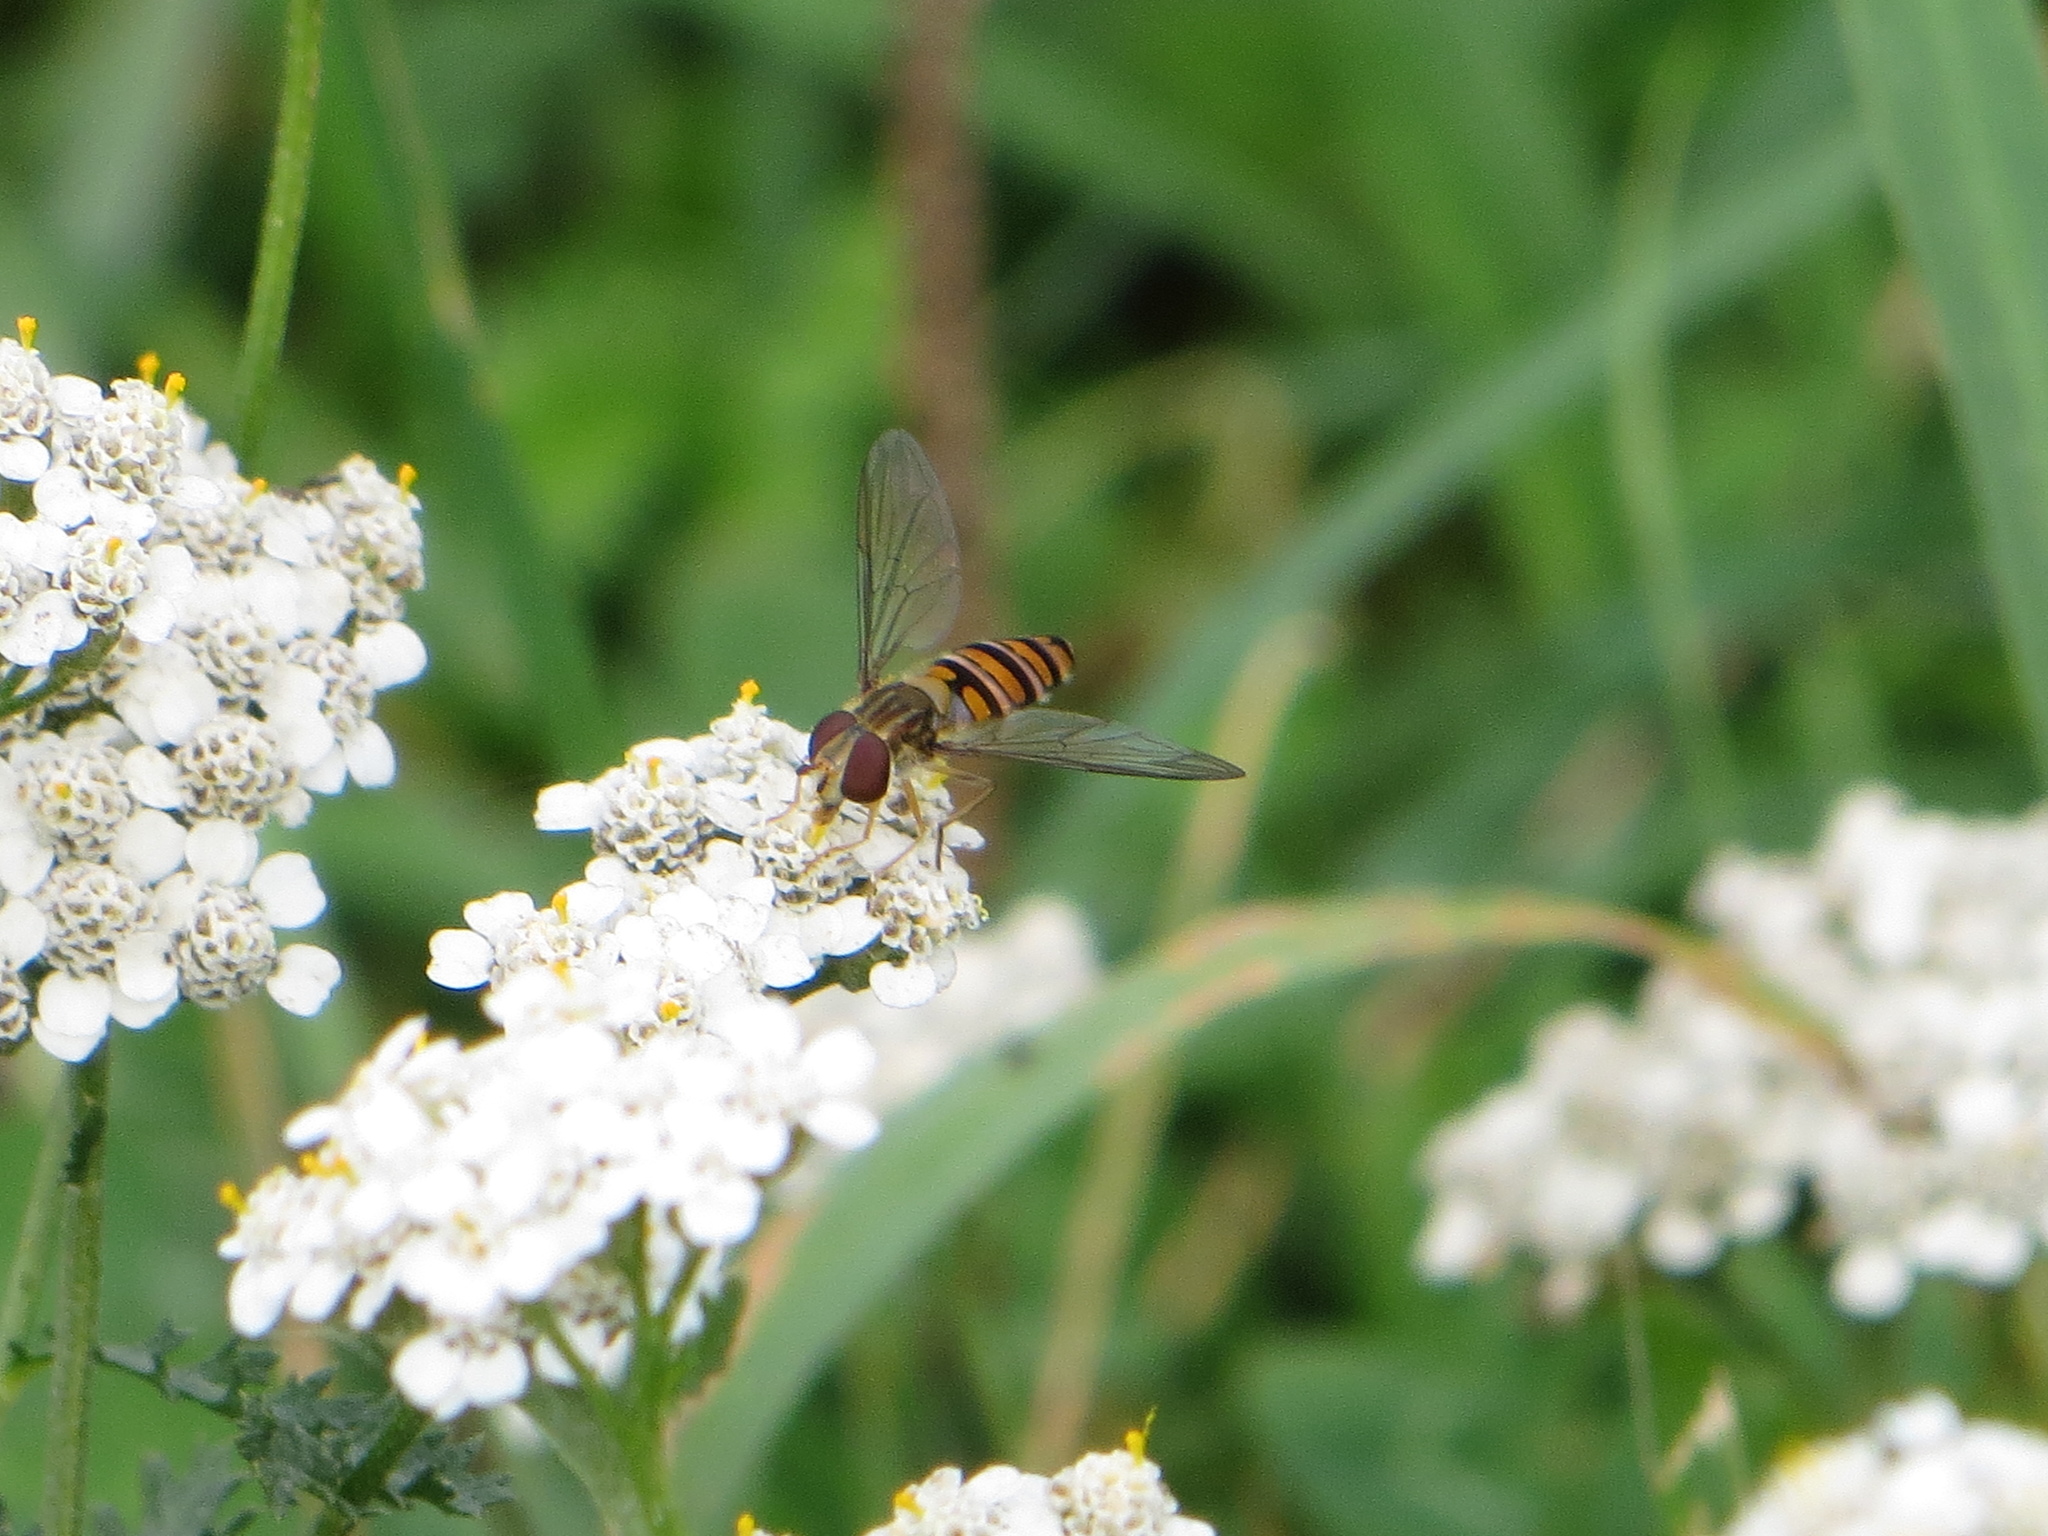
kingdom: Animalia
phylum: Arthropoda
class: Insecta
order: Diptera
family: Syrphidae
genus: Episyrphus
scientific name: Episyrphus balteatus
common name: Marmalade hoverfly
